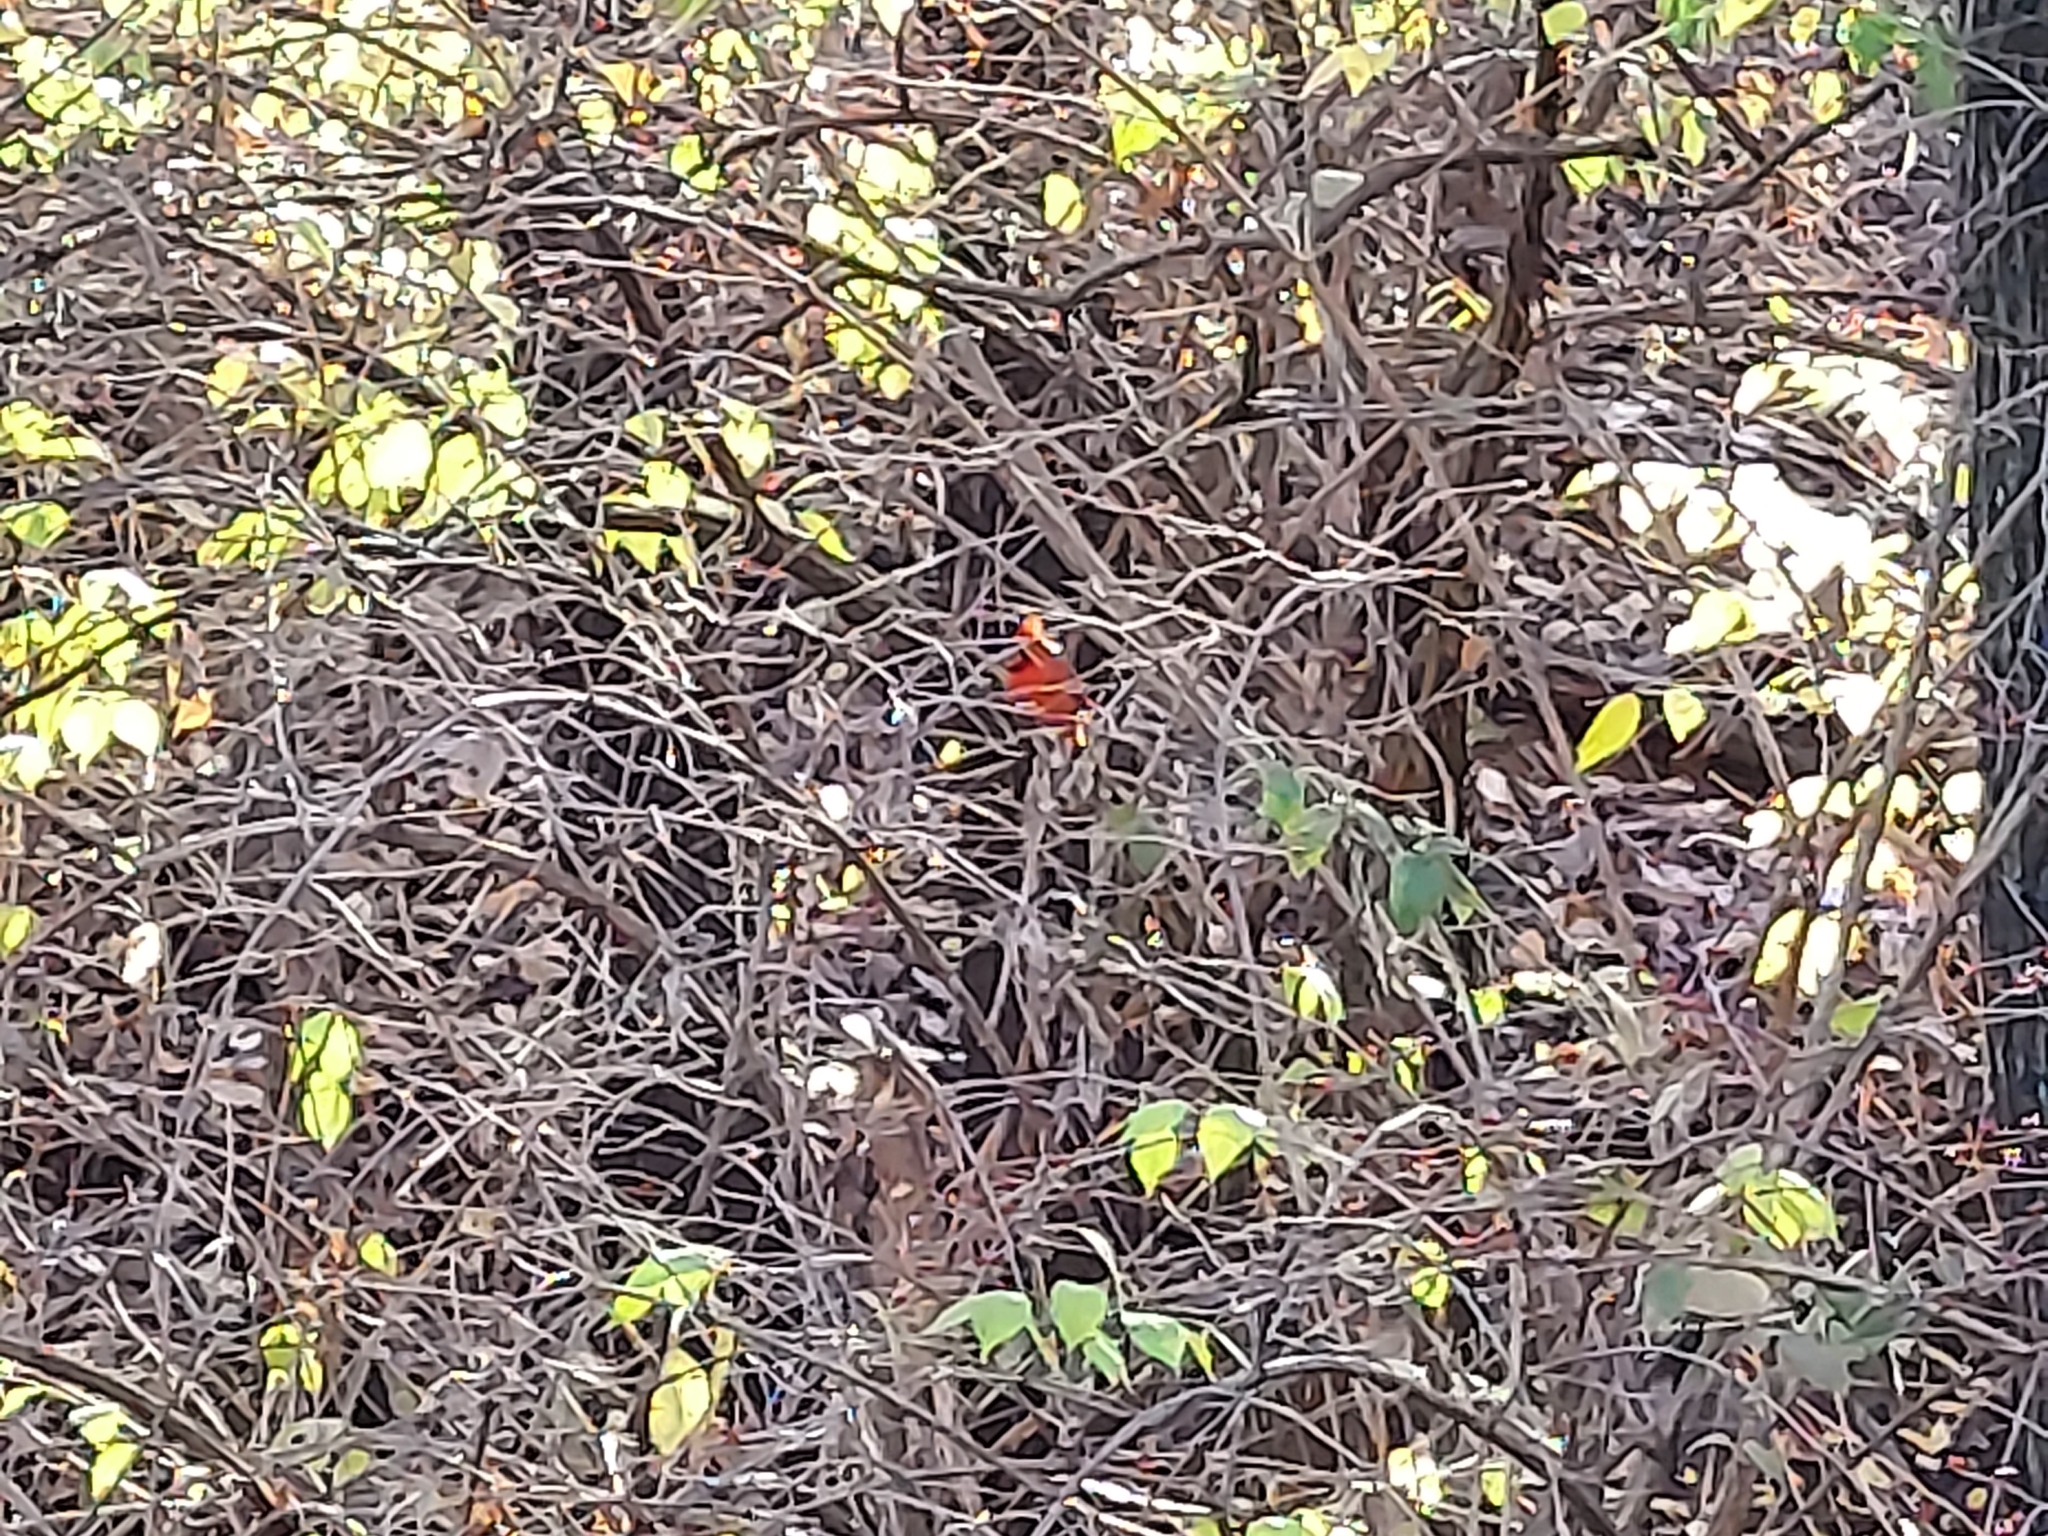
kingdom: Animalia
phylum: Chordata
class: Aves
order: Passeriformes
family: Cardinalidae
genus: Cardinalis
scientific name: Cardinalis cardinalis
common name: Northern cardinal
